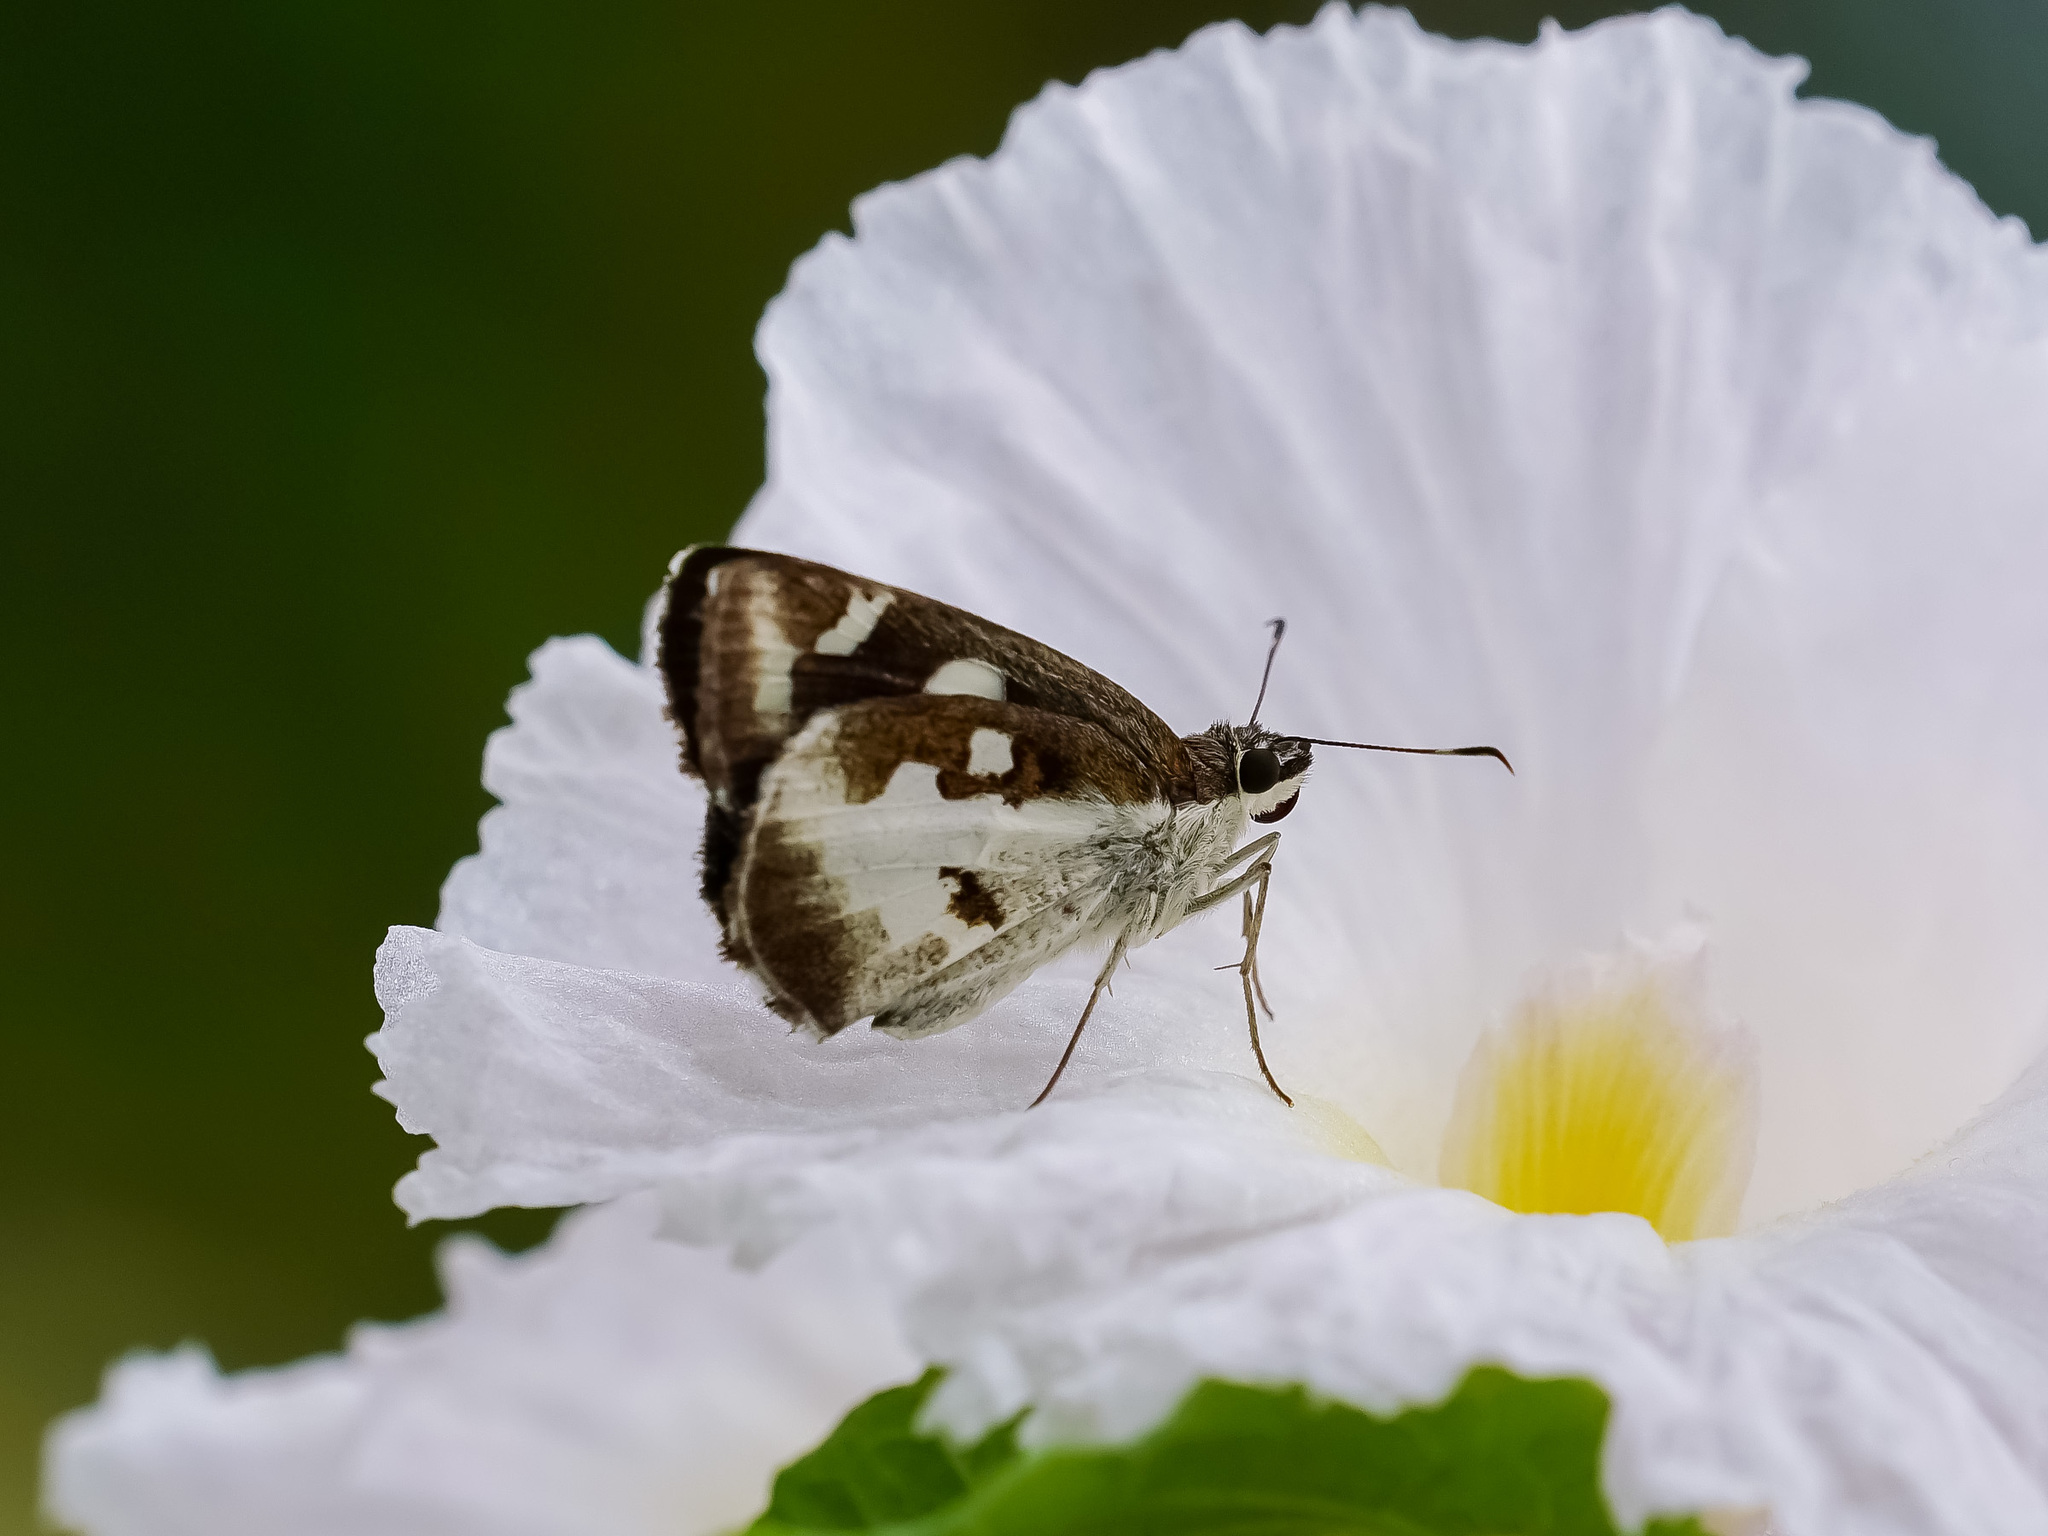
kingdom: Animalia
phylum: Arthropoda
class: Insecta
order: Lepidoptera
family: Hesperiidae
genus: Udaspes
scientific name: Udaspes folus
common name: Grass demon
